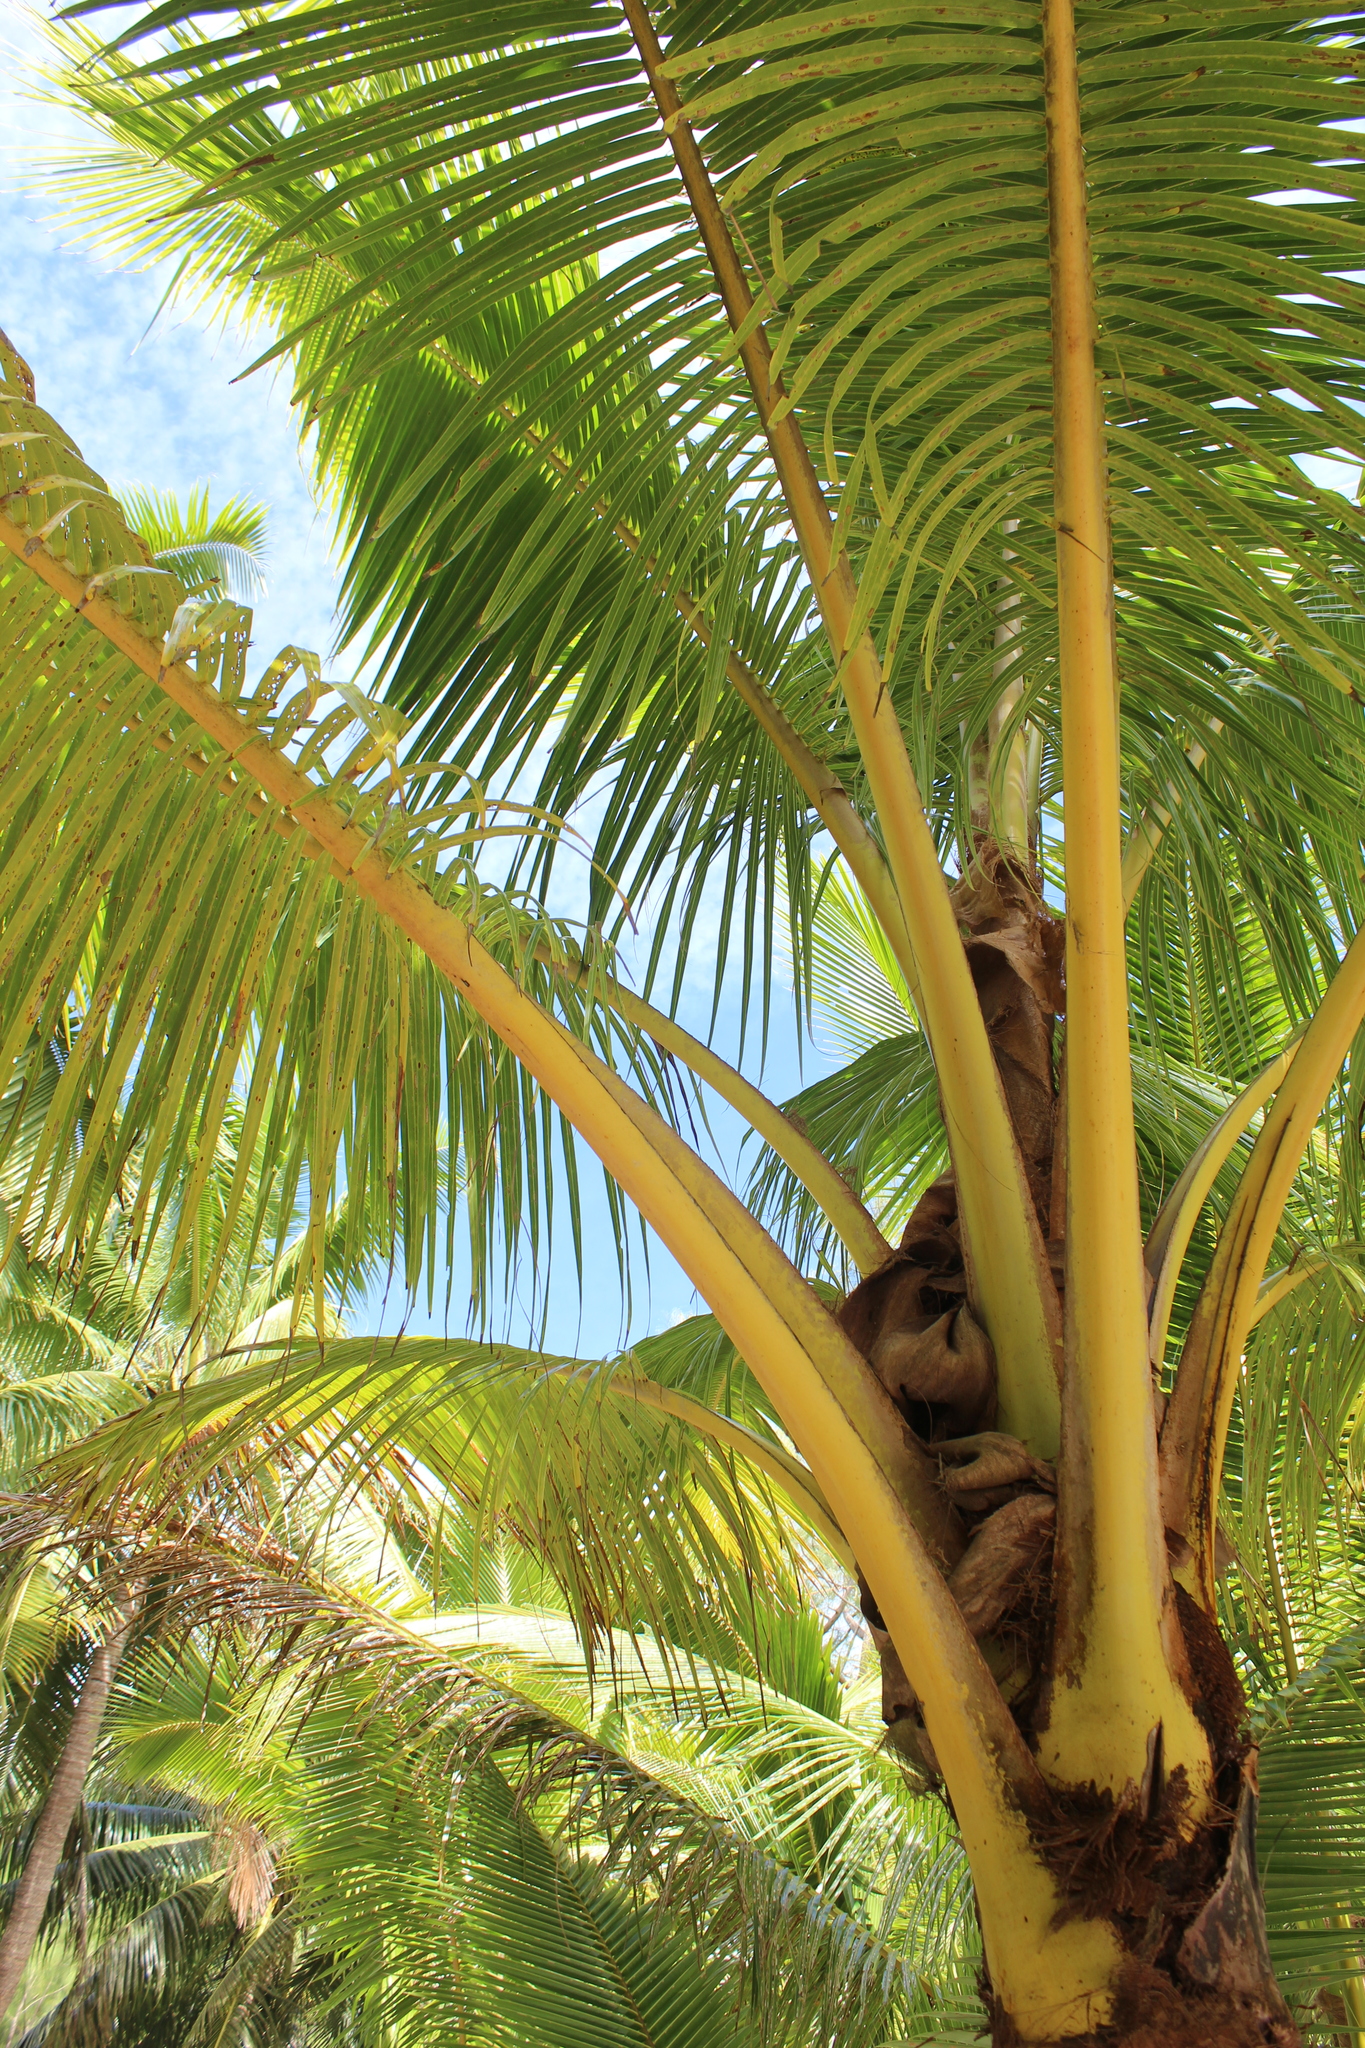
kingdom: Plantae
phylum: Tracheophyta
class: Liliopsida
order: Arecales
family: Arecaceae
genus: Cocos
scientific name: Cocos nucifera
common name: Coconut palm
